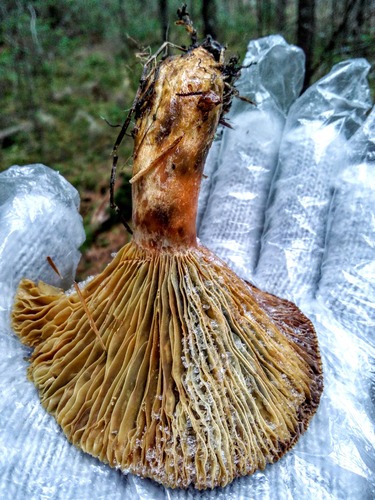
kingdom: Fungi
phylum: Basidiomycota
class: Agaricomycetes
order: Russulales
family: Russulaceae
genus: Lactarius
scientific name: Lactarius
